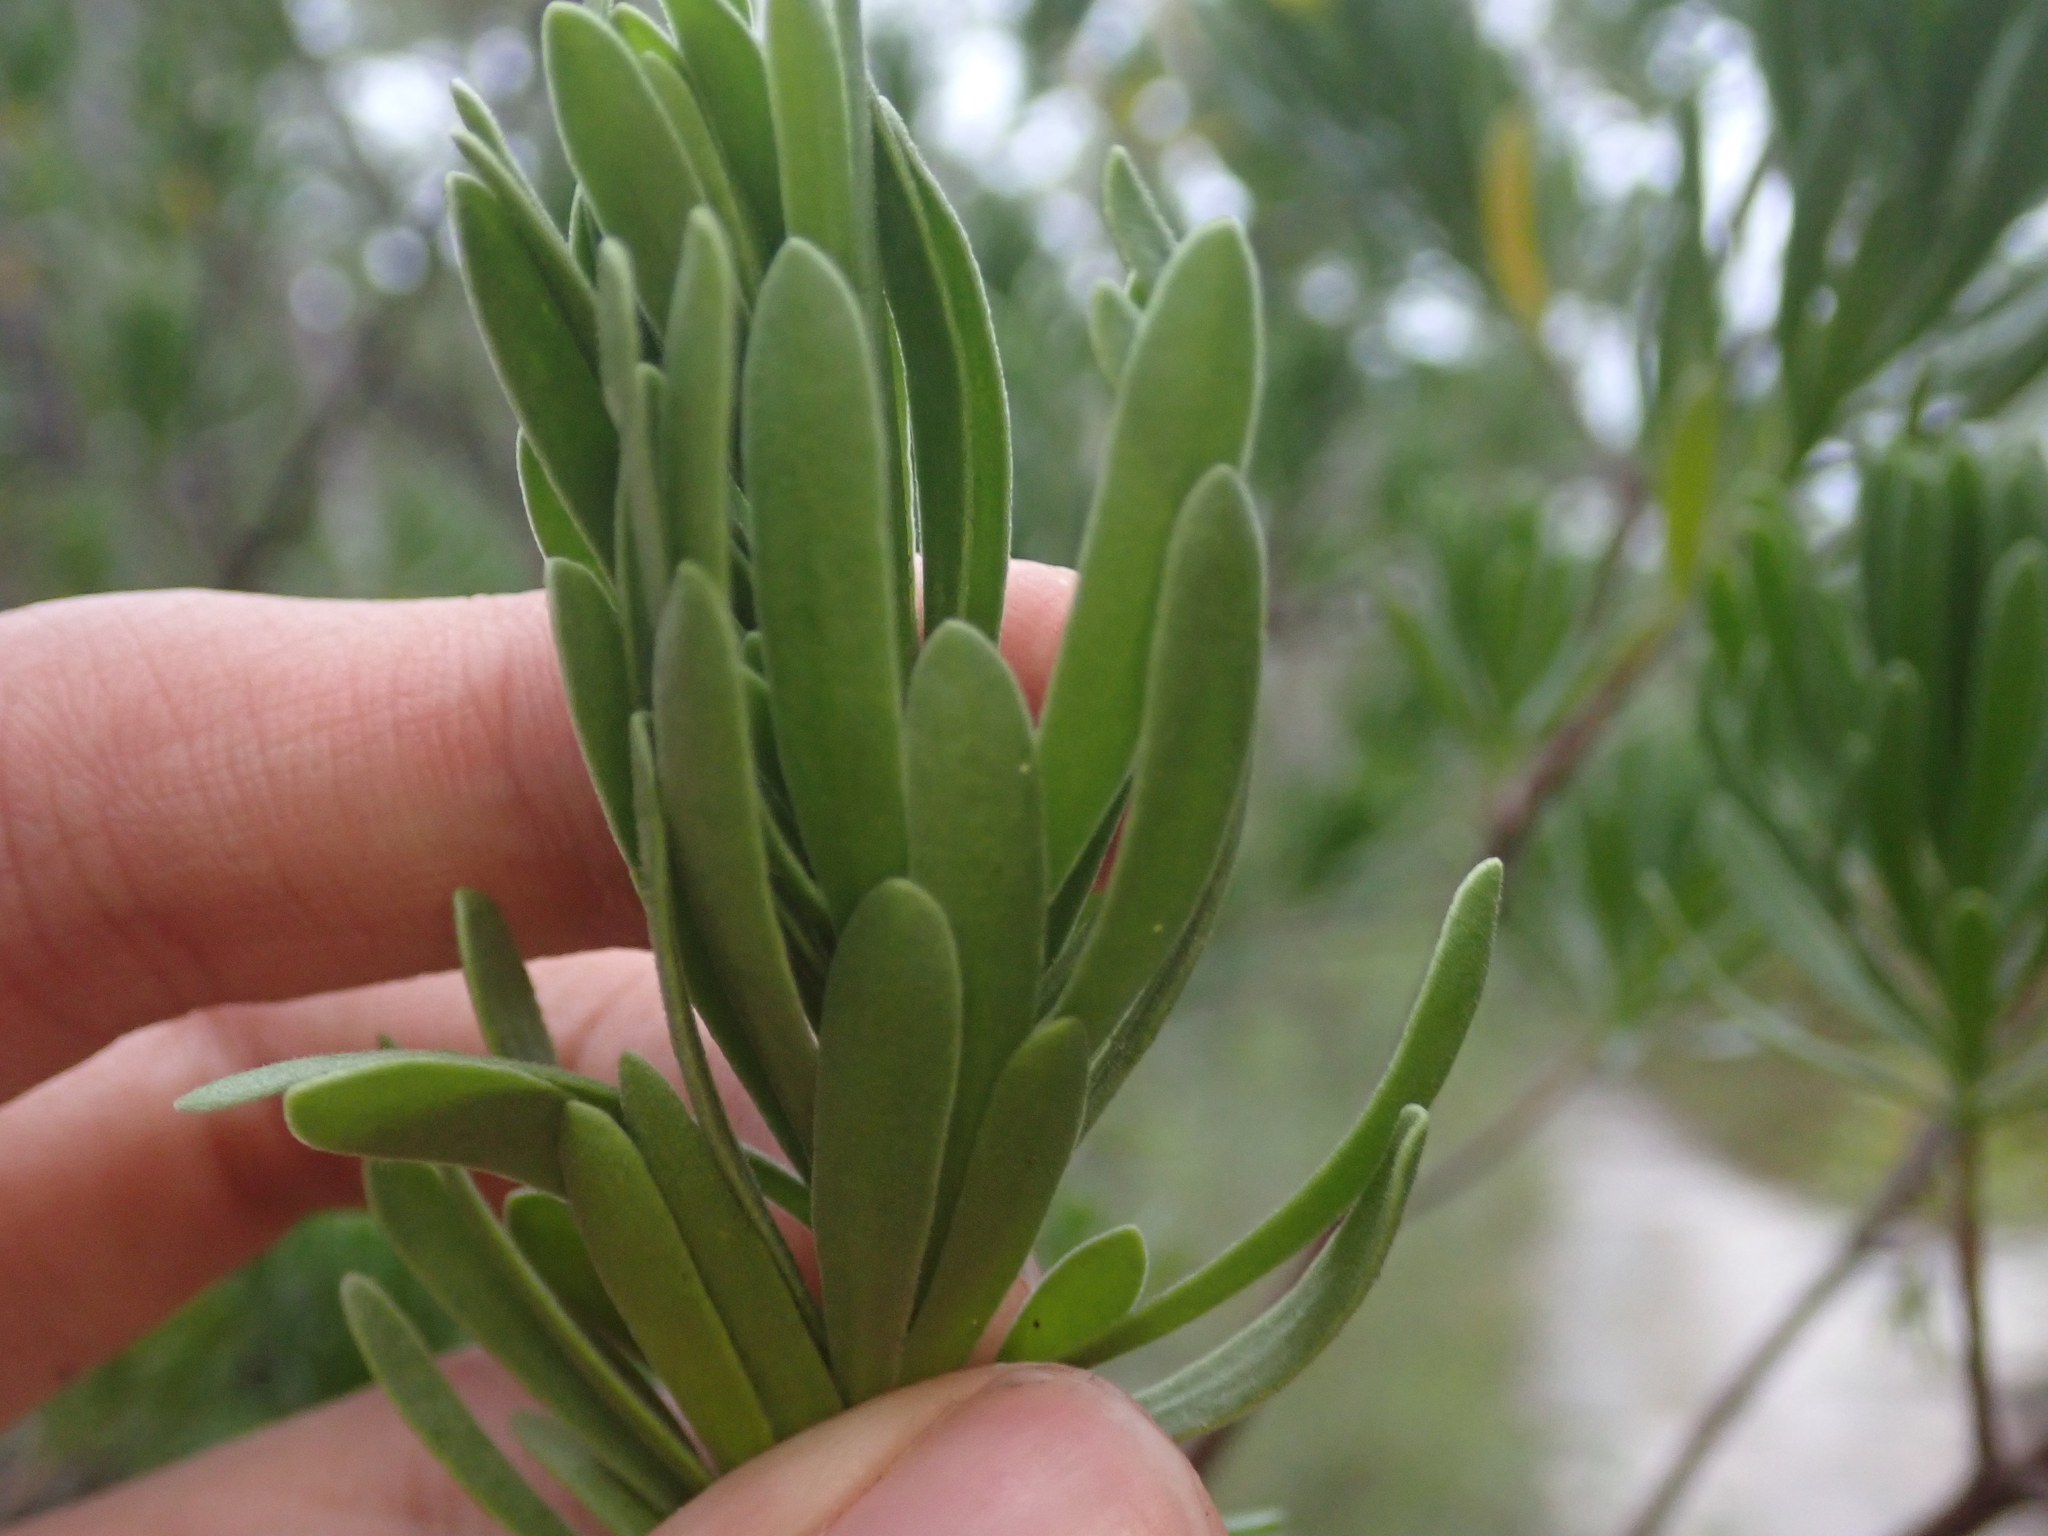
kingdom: Plantae
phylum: Tracheophyta
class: Magnoliopsida
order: Fabales
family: Surianaceae
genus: Suriana
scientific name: Suriana maritima
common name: Bay-cedar
